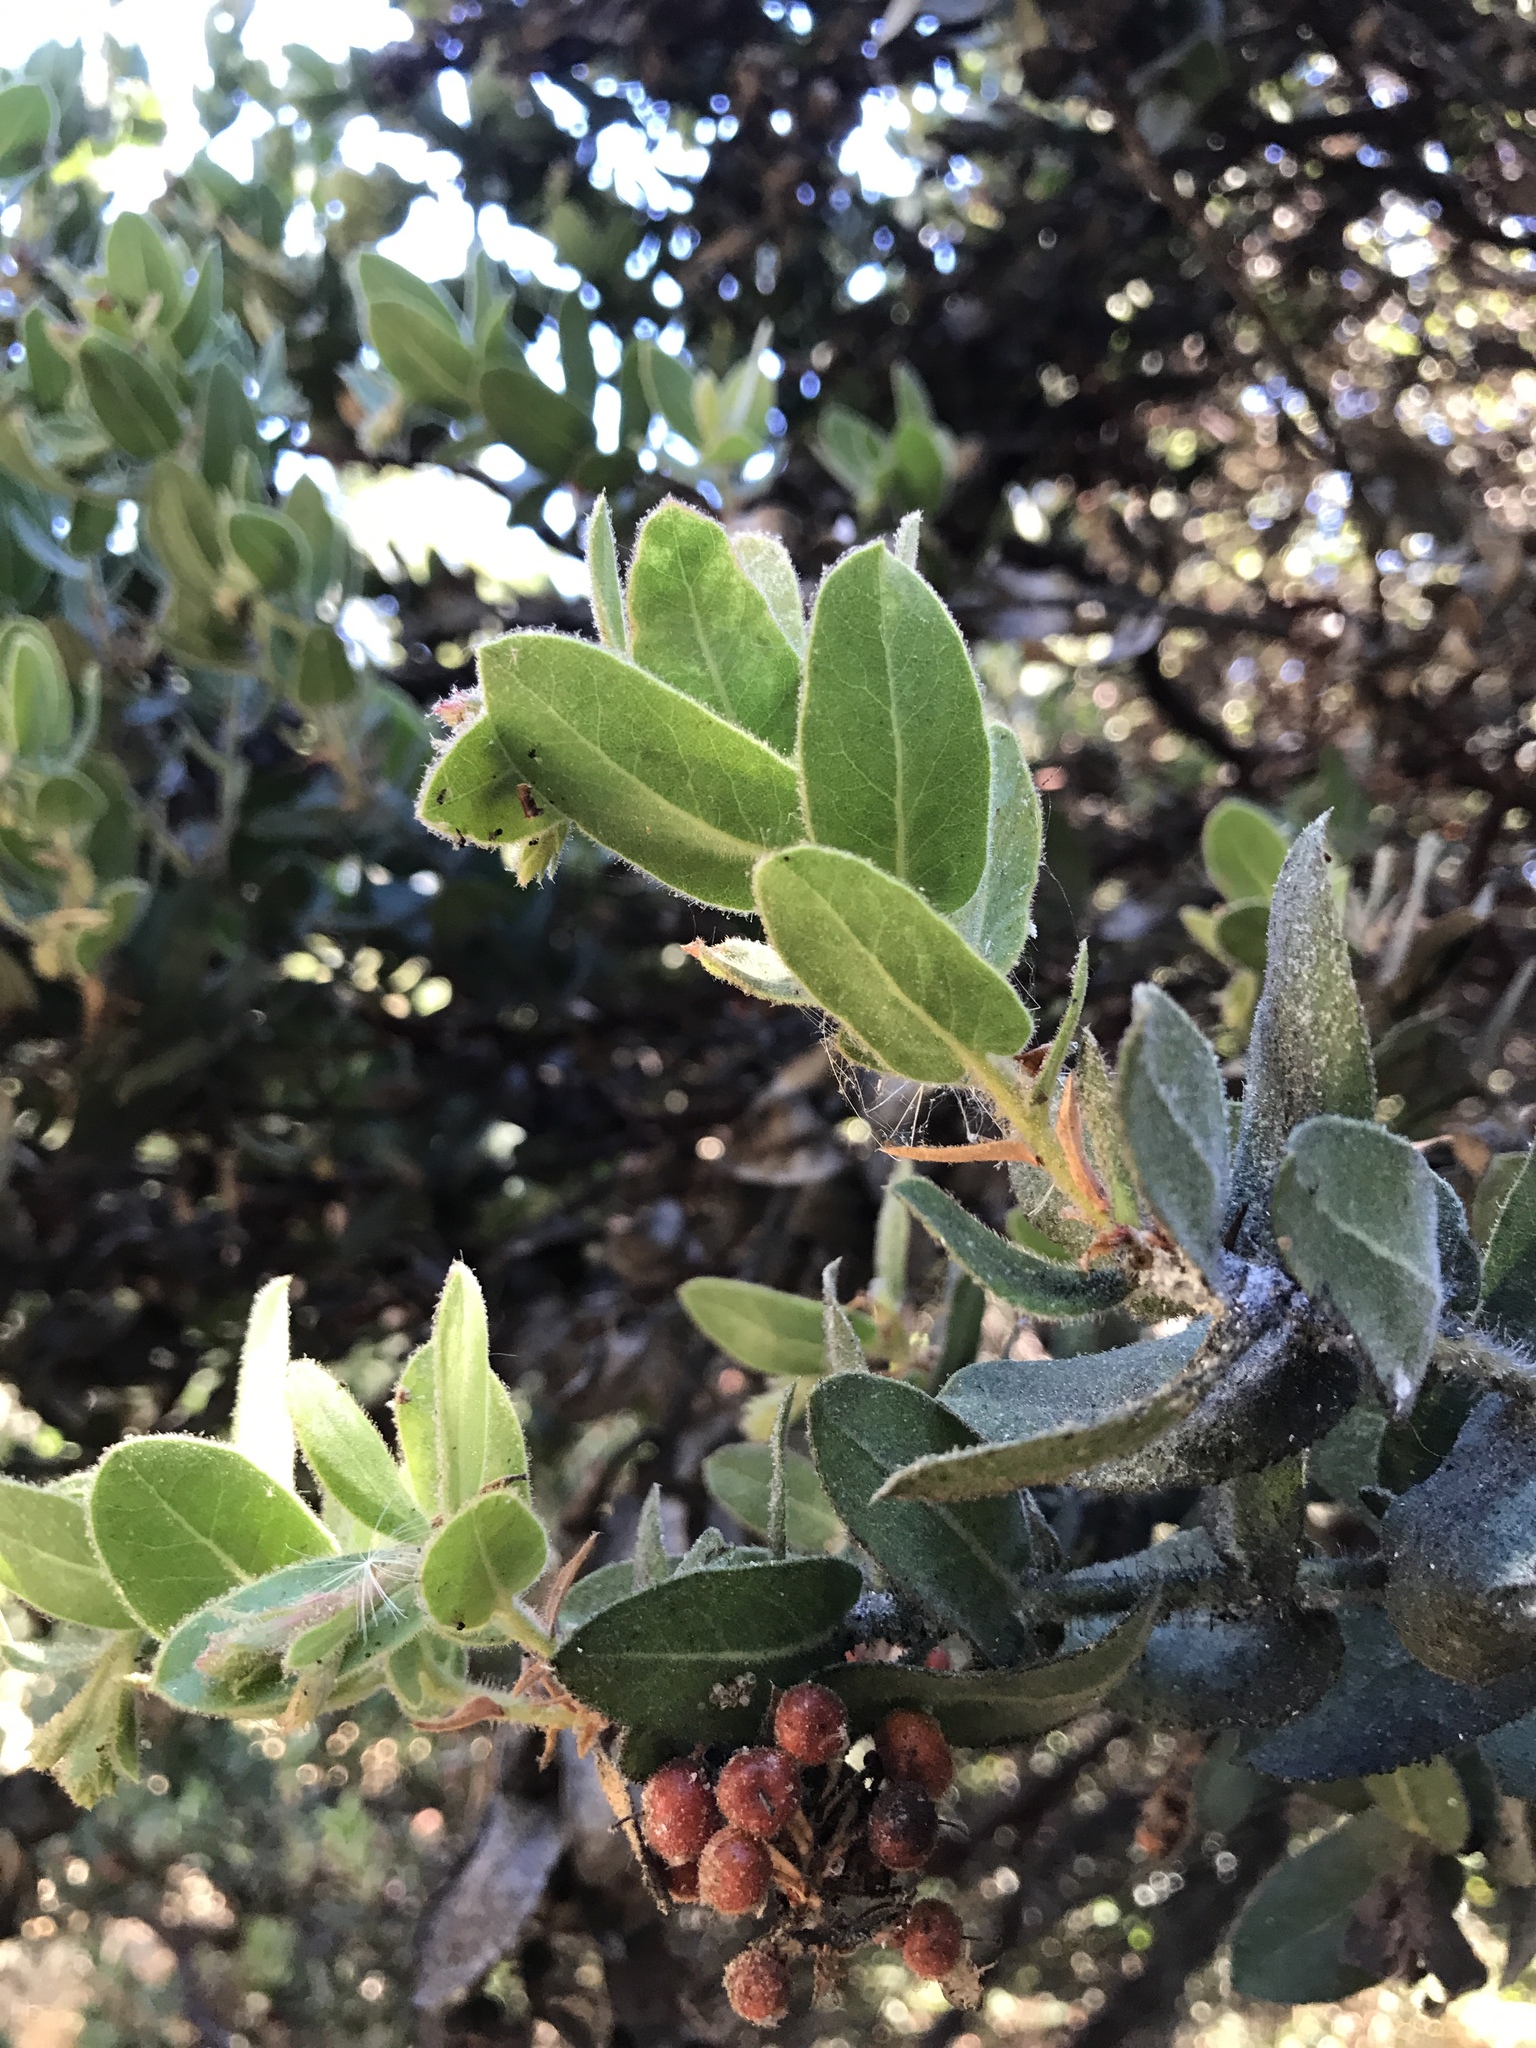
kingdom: Plantae
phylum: Tracheophyta
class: Magnoliopsida
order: Ericales
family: Ericaceae
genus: Arctostaphylos
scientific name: Arctostaphylos regismontana
